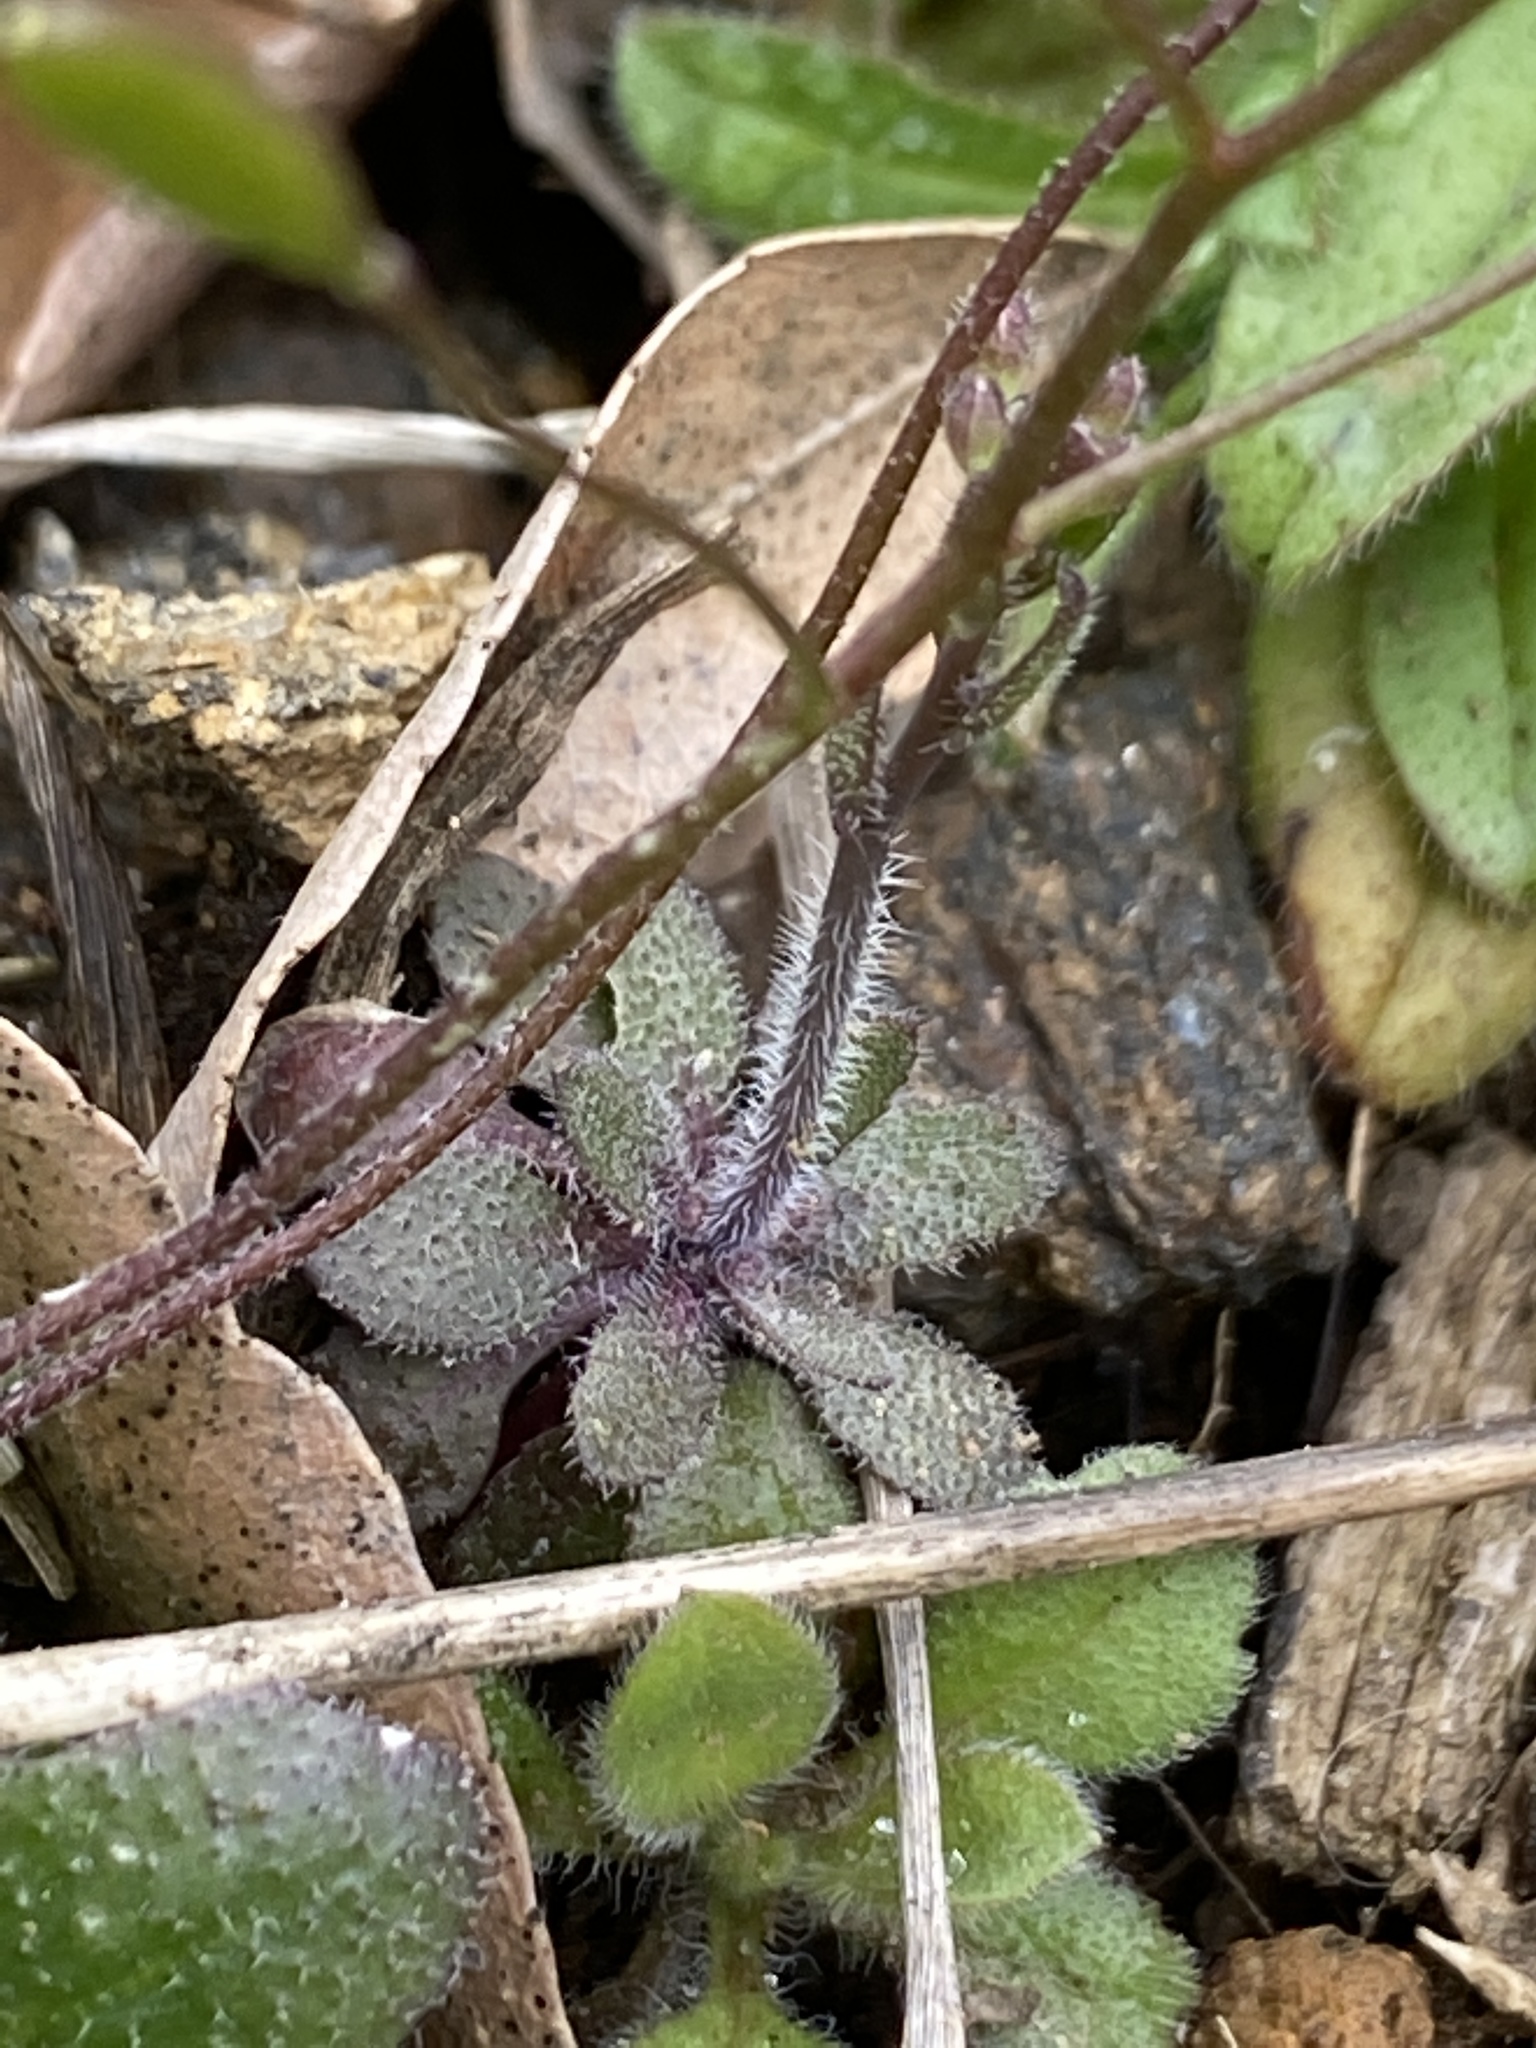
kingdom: Plantae
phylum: Tracheophyta
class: Magnoliopsida
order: Brassicales
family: Brassicaceae
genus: Draba
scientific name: Draba verna
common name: Spring draba
